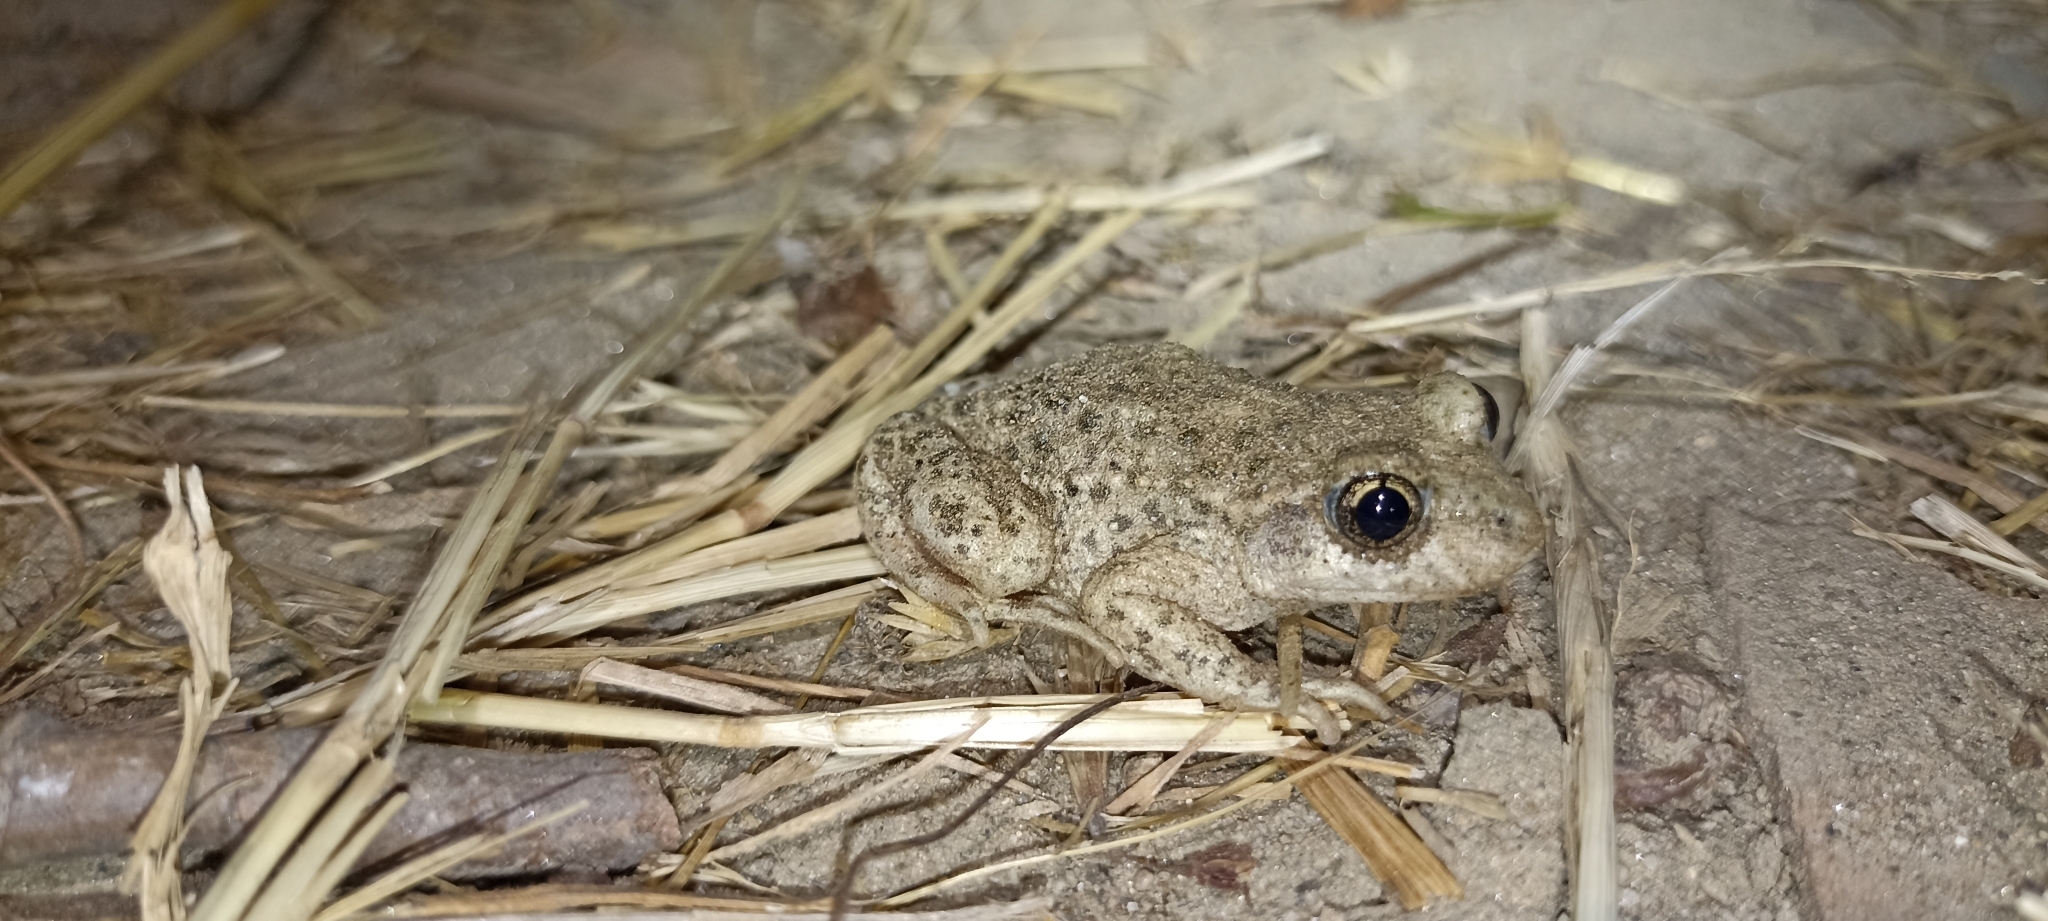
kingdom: Animalia
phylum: Chordata
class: Amphibia
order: Anura
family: Alytidae
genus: Alytes
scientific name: Alytes obstetricans
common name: Midwife toad
